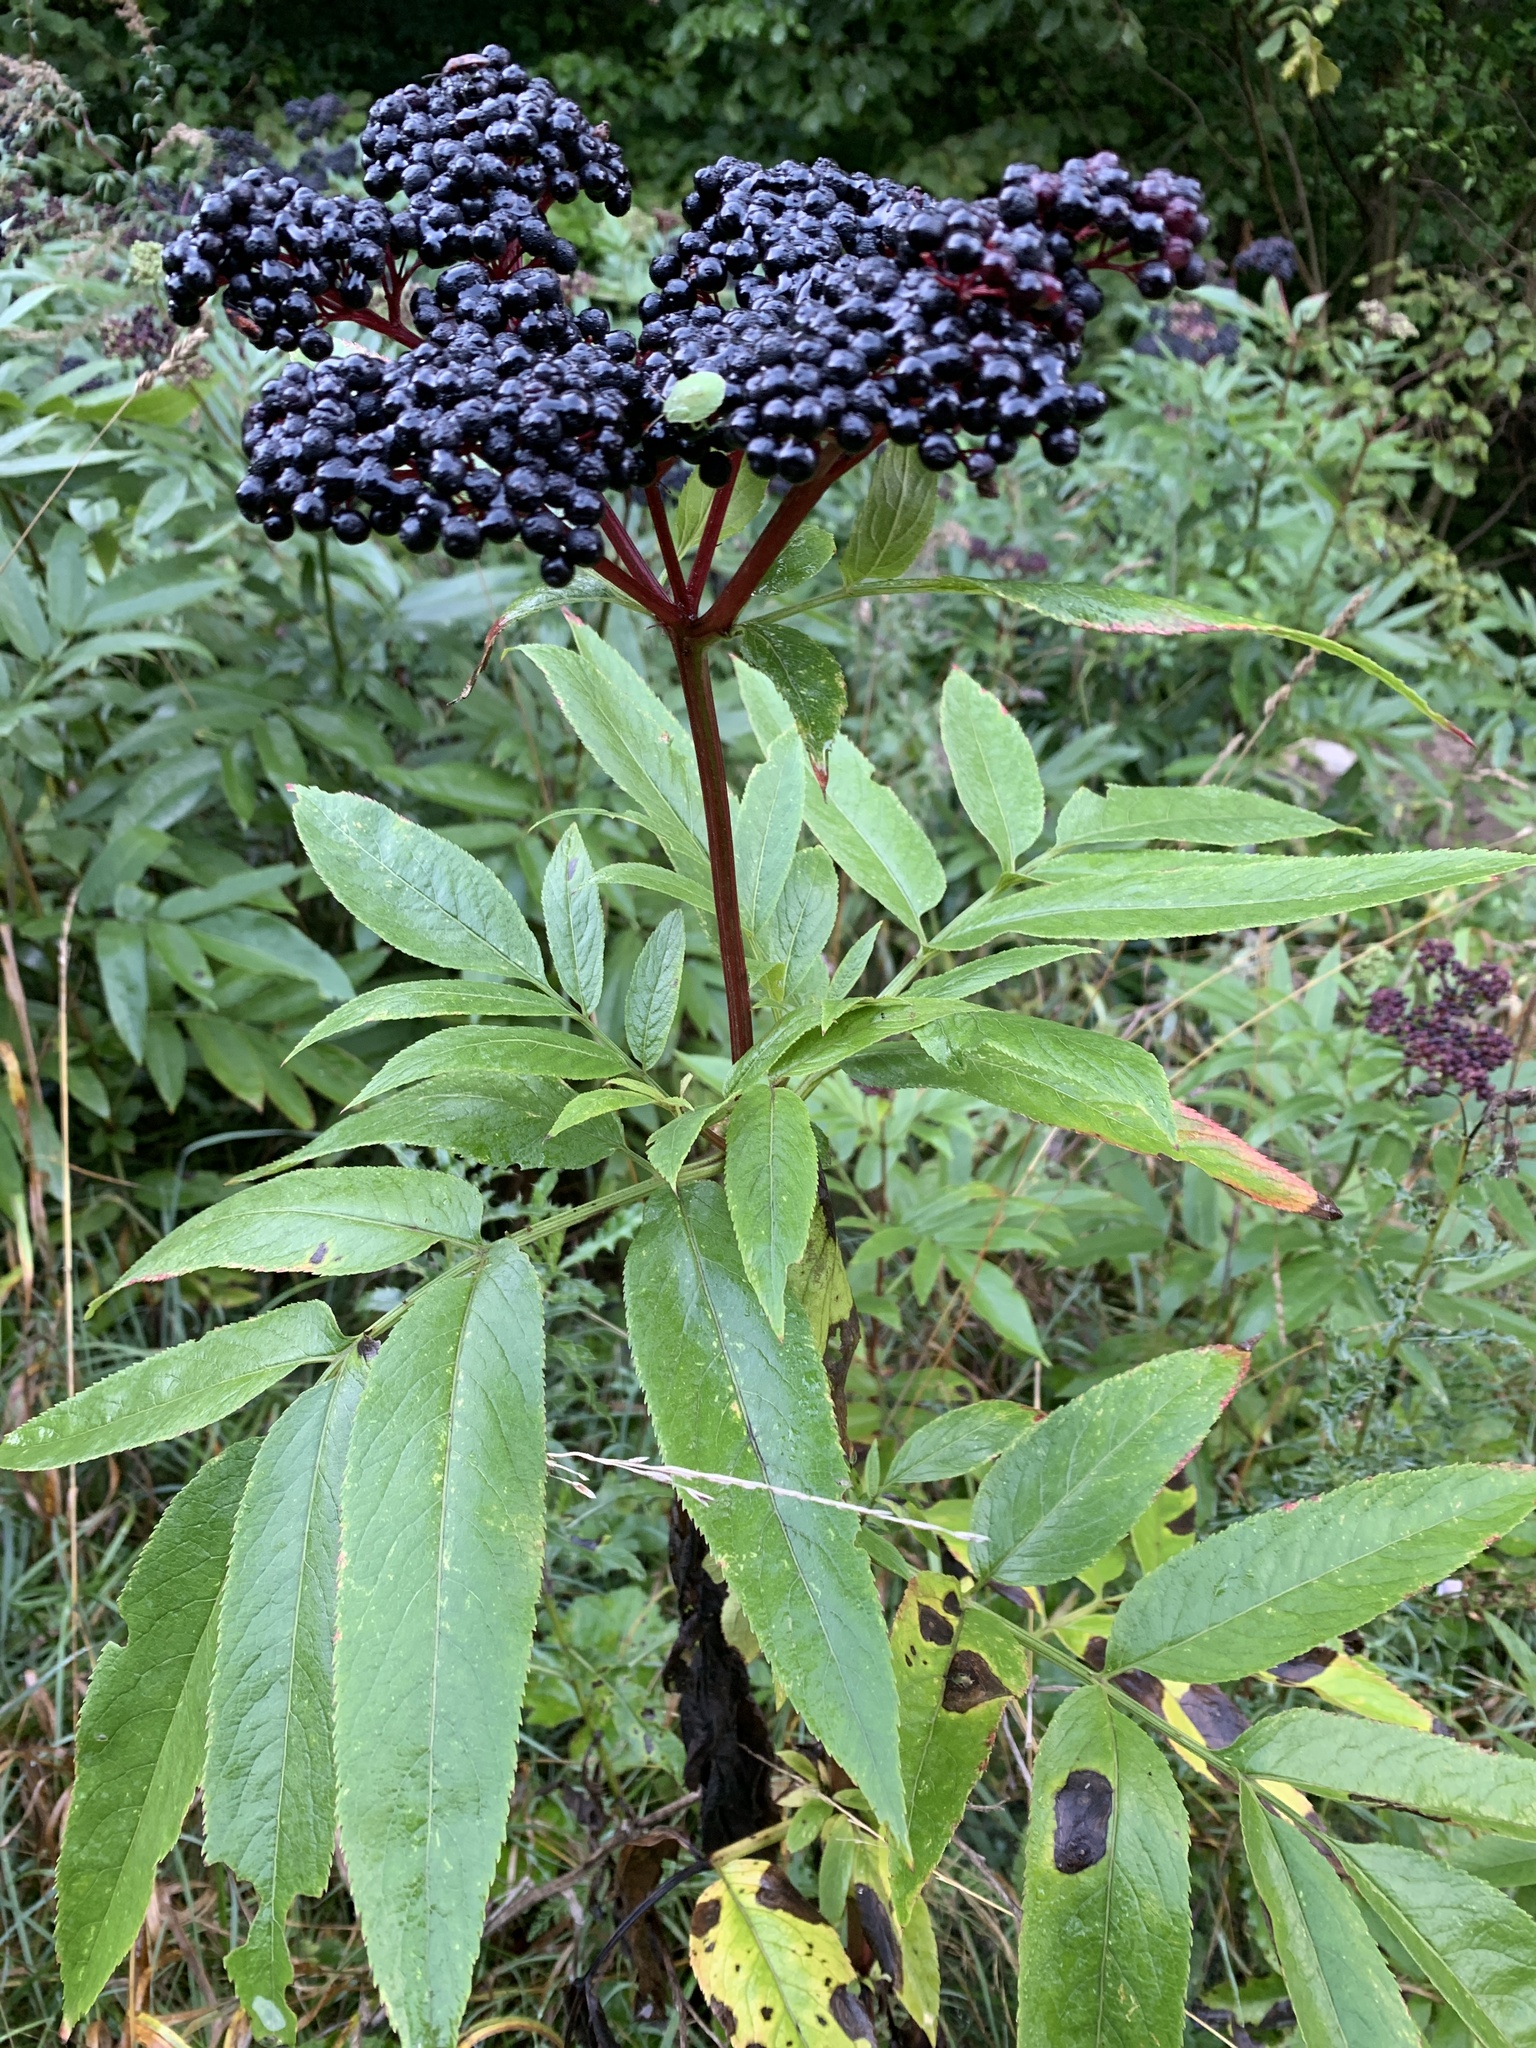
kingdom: Plantae
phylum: Tracheophyta
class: Magnoliopsida
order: Dipsacales
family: Viburnaceae
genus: Sambucus
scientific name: Sambucus ebulus
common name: Dwarf elder
